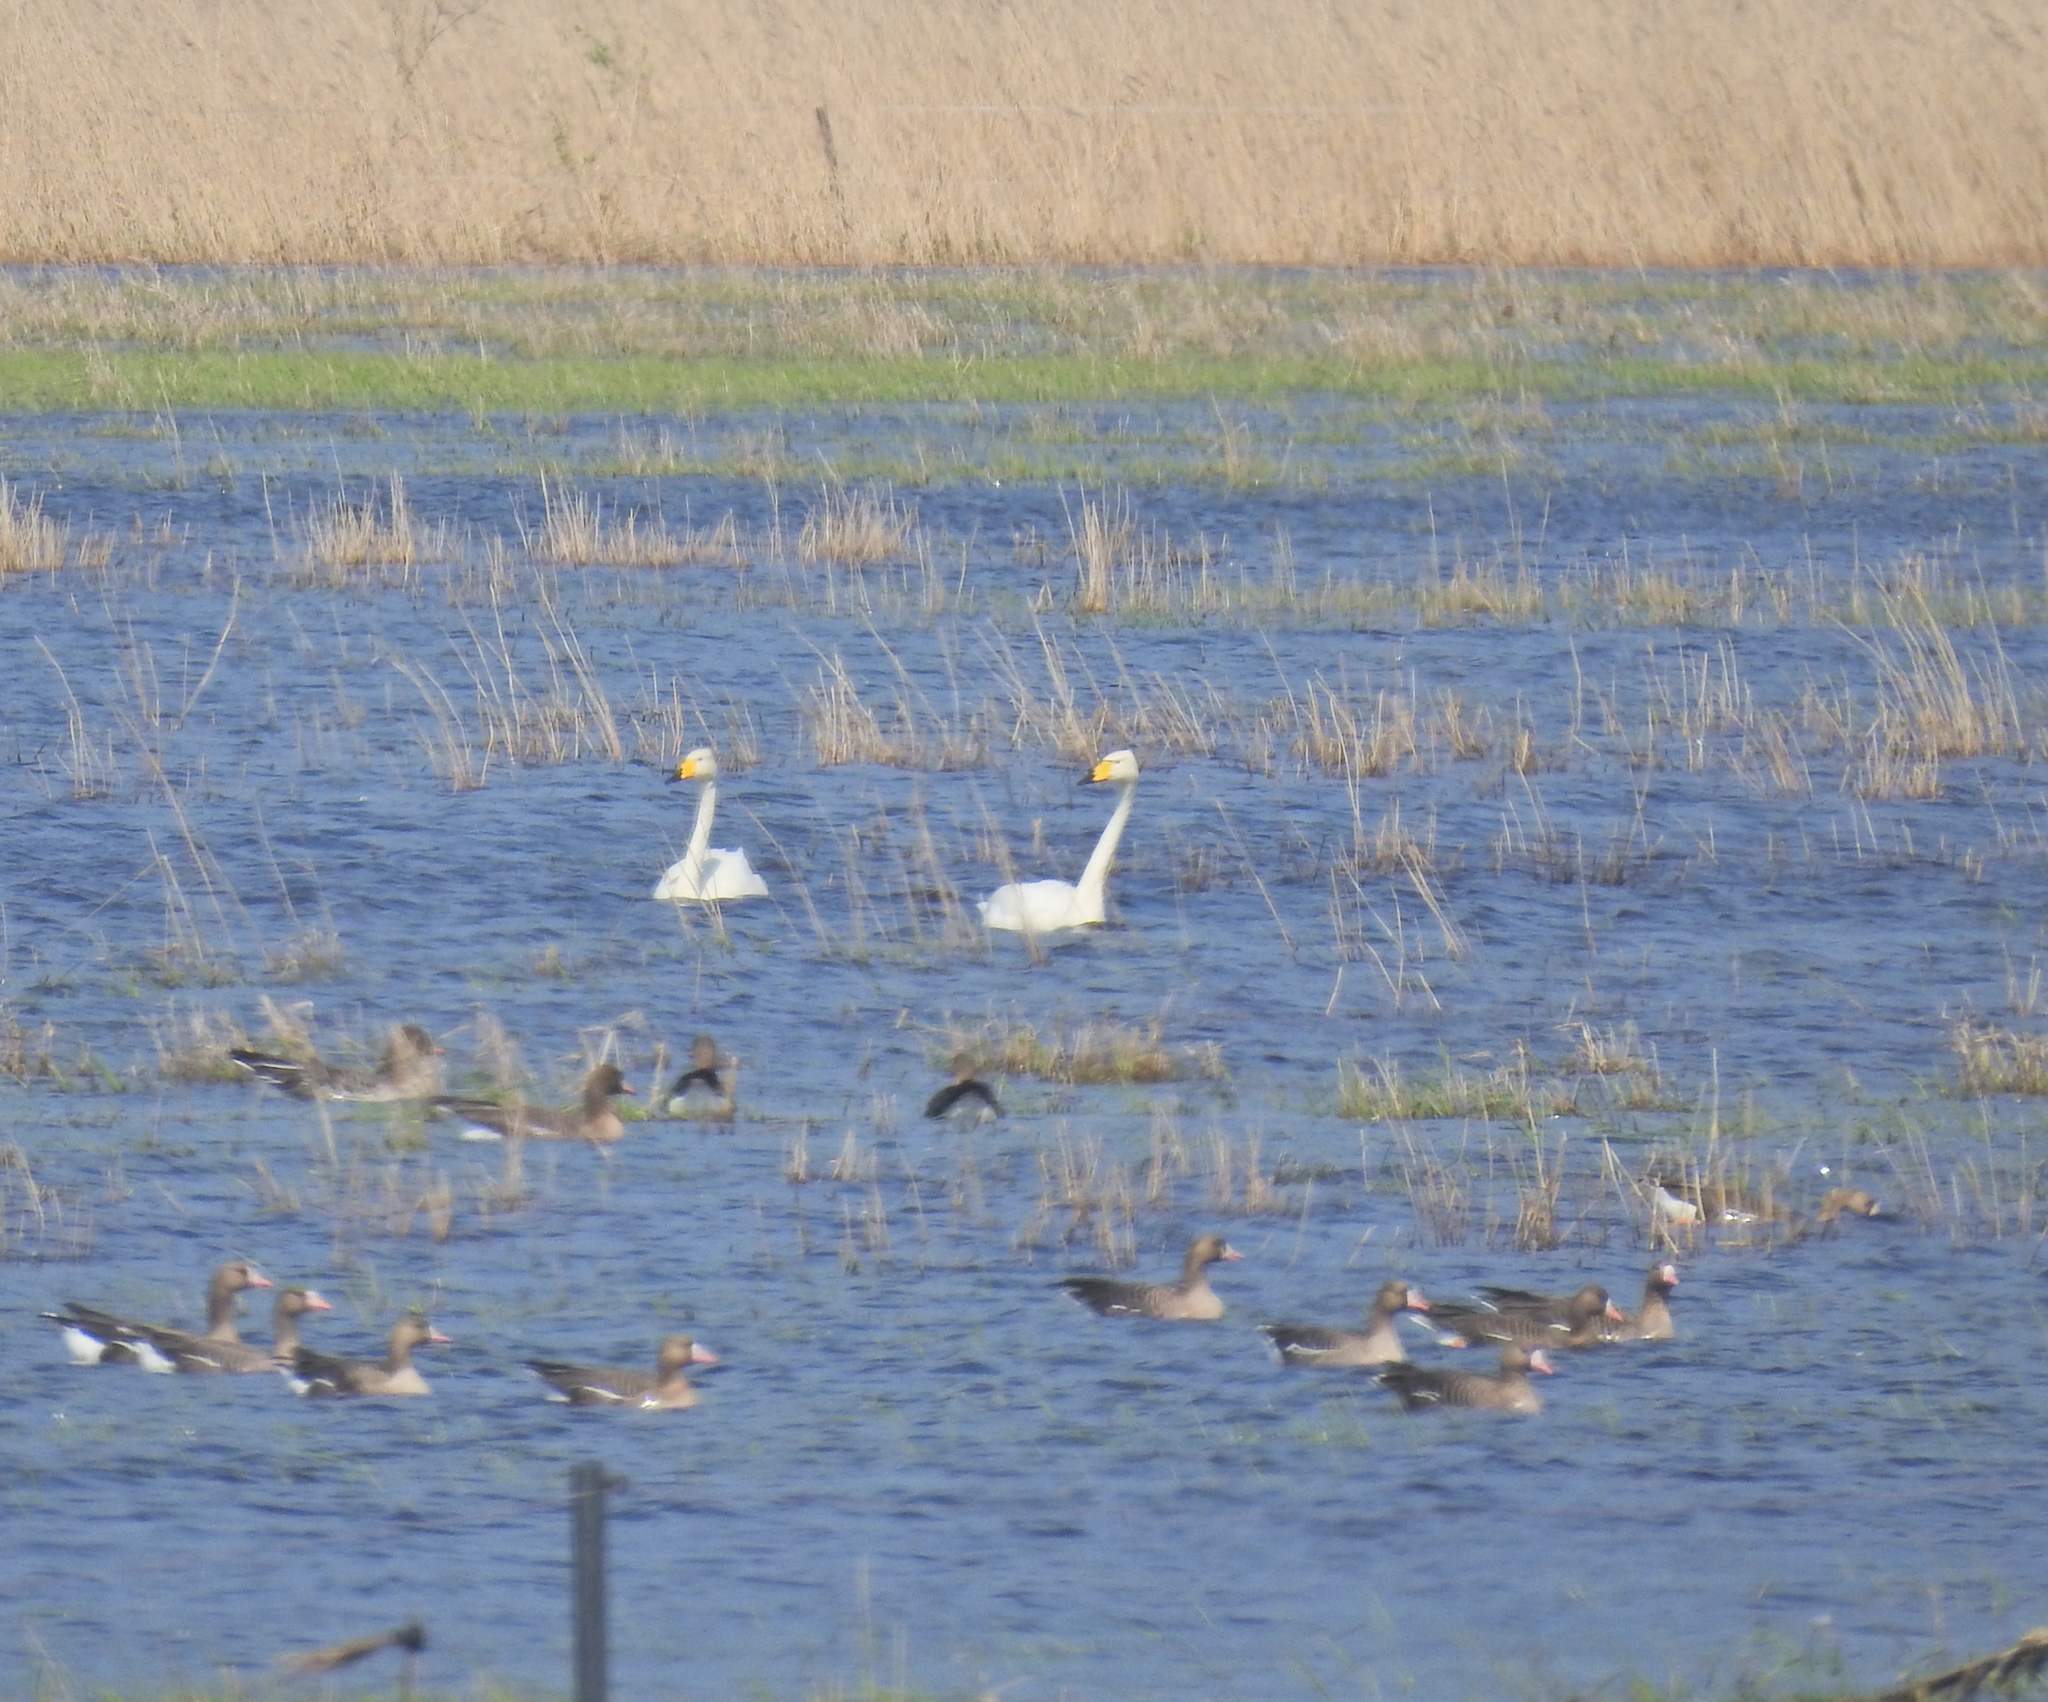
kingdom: Animalia
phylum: Chordata
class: Aves
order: Anseriformes
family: Anatidae
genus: Cygnus
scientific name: Cygnus cygnus
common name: Whooper swan
